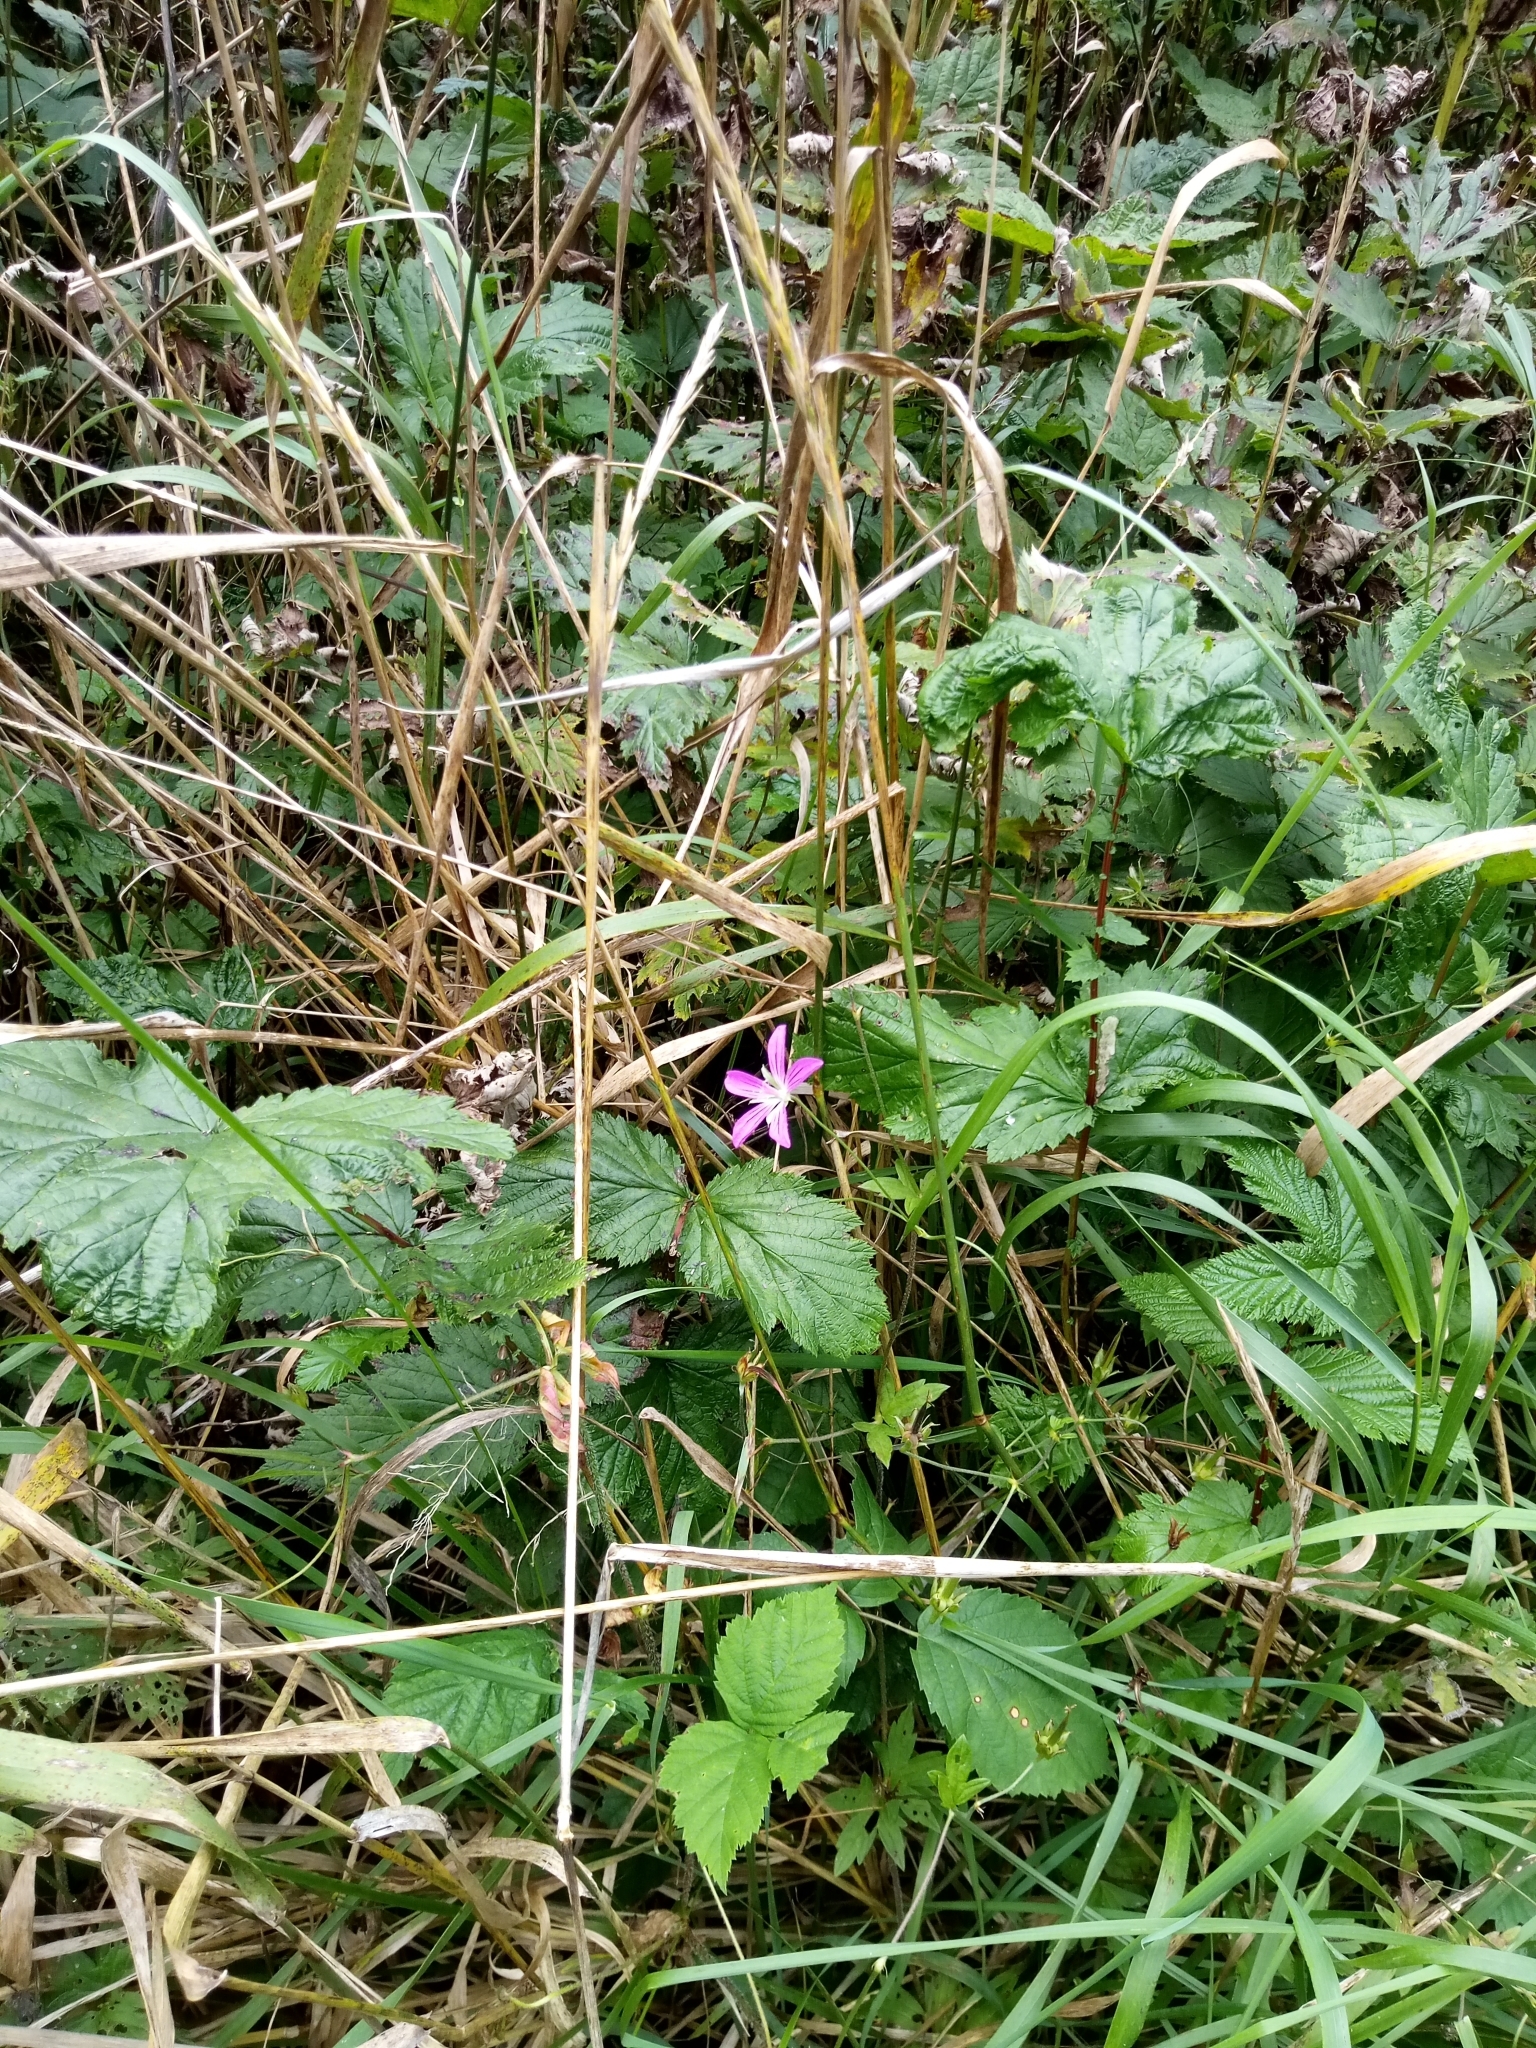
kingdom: Plantae
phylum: Tracheophyta
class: Magnoliopsida
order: Geraniales
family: Geraniaceae
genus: Geranium
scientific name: Geranium palustre
